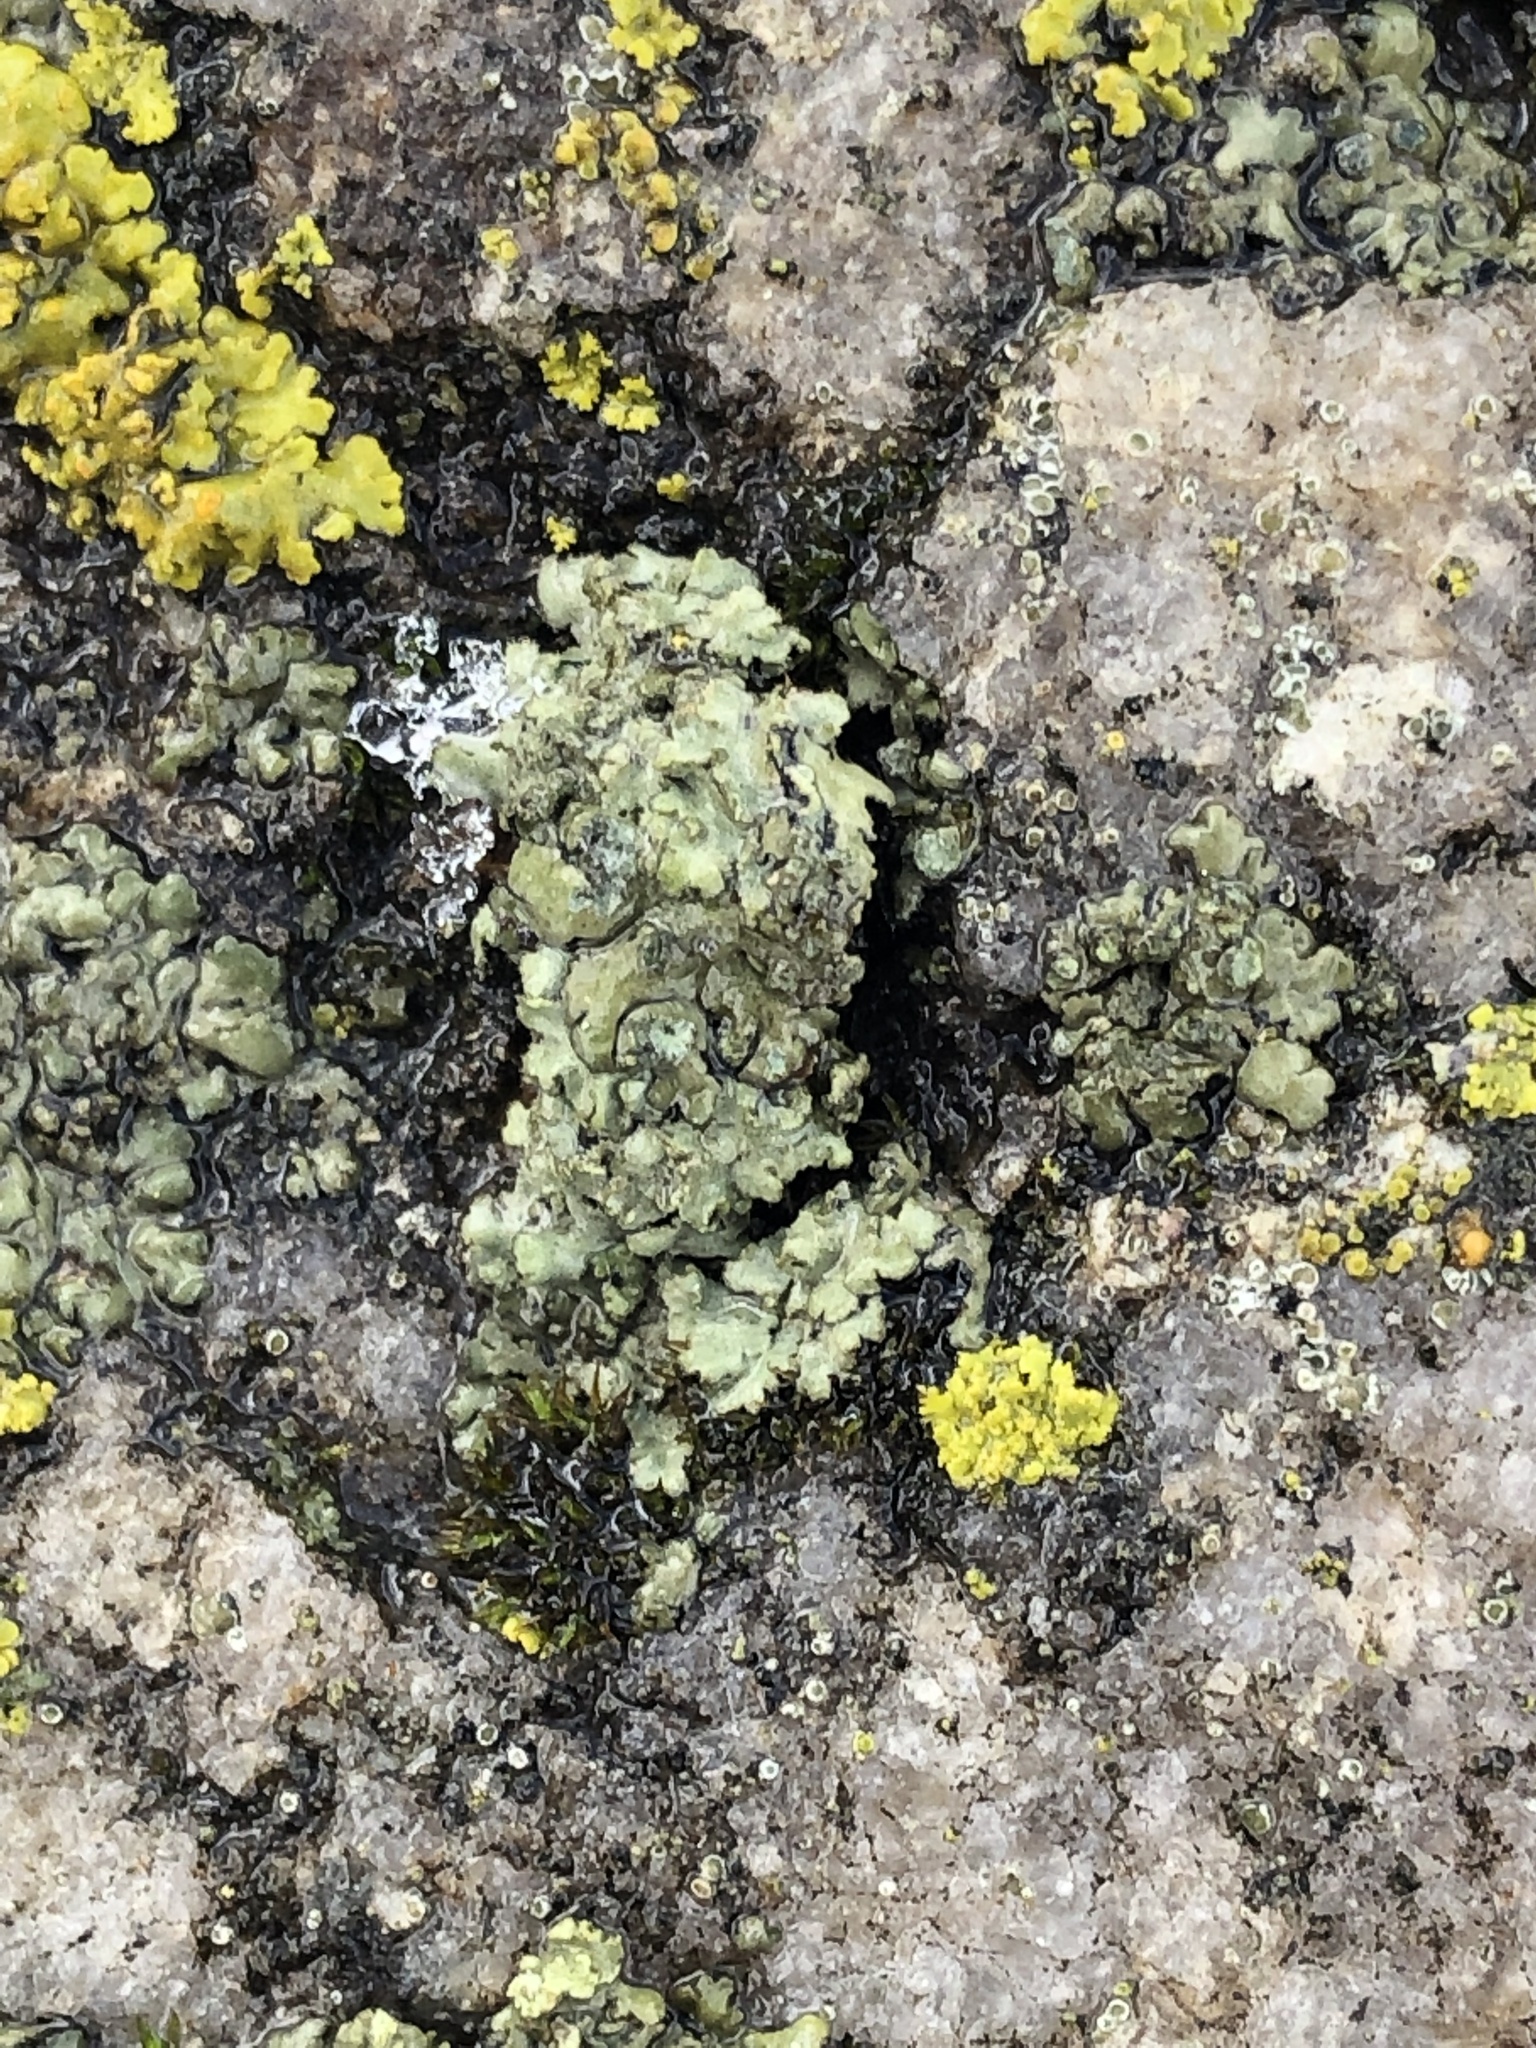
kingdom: Fungi
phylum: Ascomycota
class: Lecanoromycetes
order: Lecanorales
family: Parmeliaceae
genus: Flavopunctelia
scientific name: Flavopunctelia soredica
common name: Powder-edged speckled greenshield
